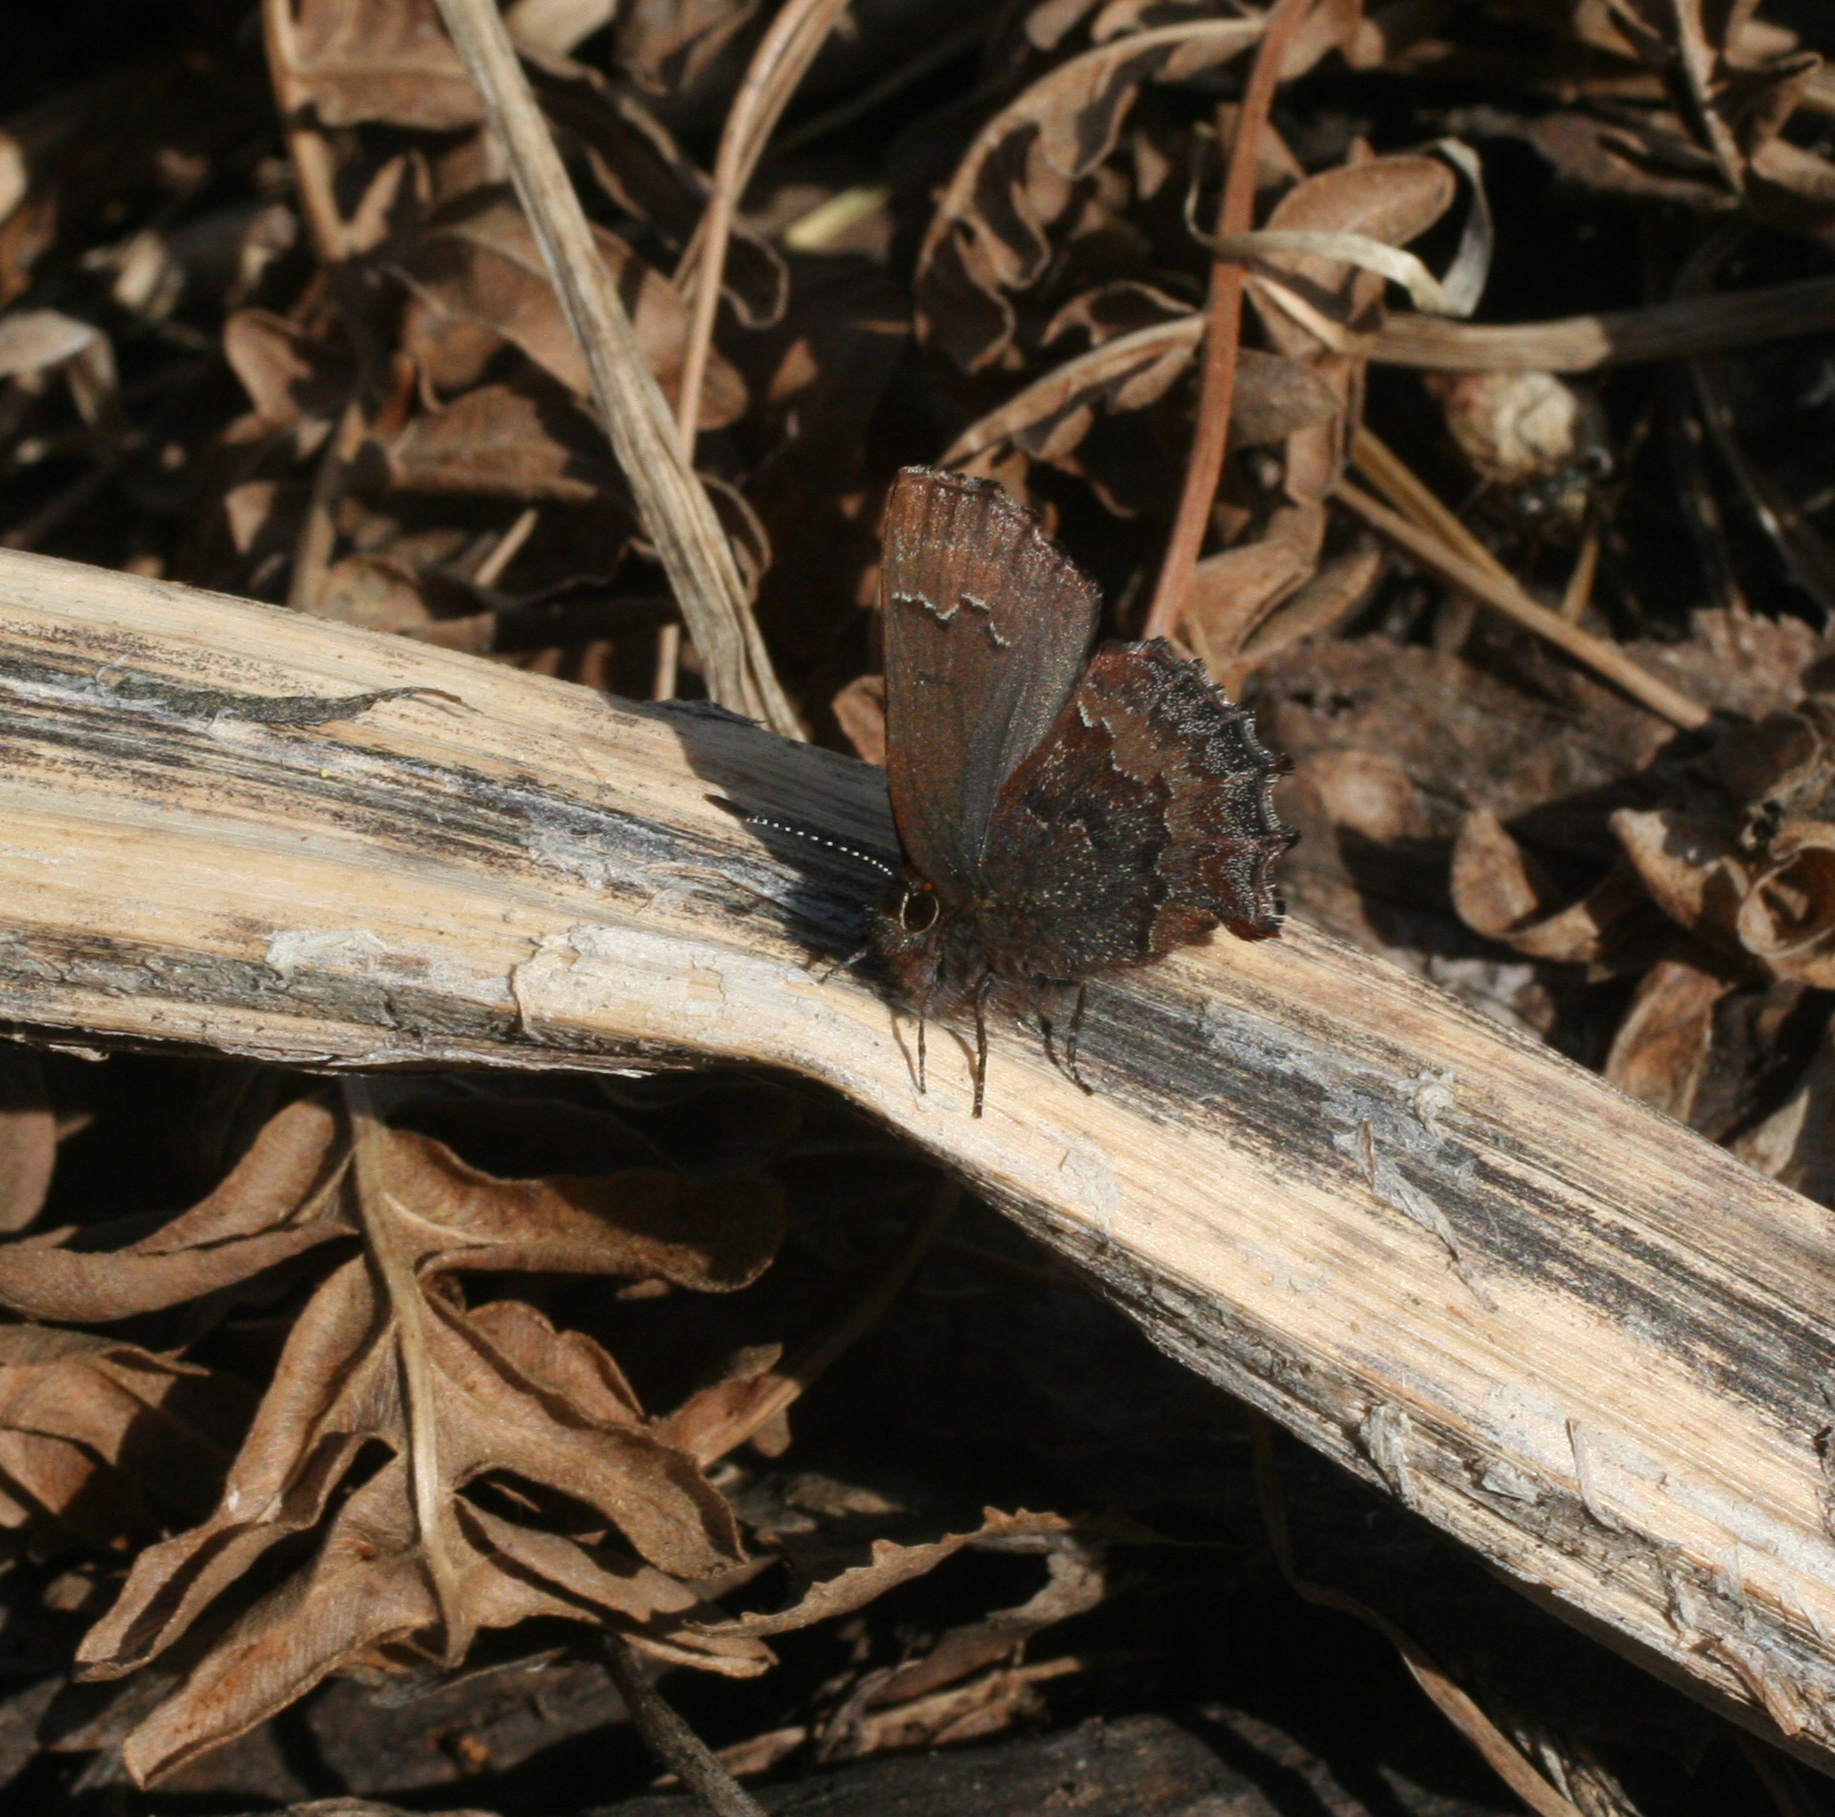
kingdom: Animalia
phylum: Arthropoda
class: Insecta
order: Lepidoptera
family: Lycaenidae
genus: Ginzia
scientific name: Ginzia Ahlbergia frivaldszkyi
